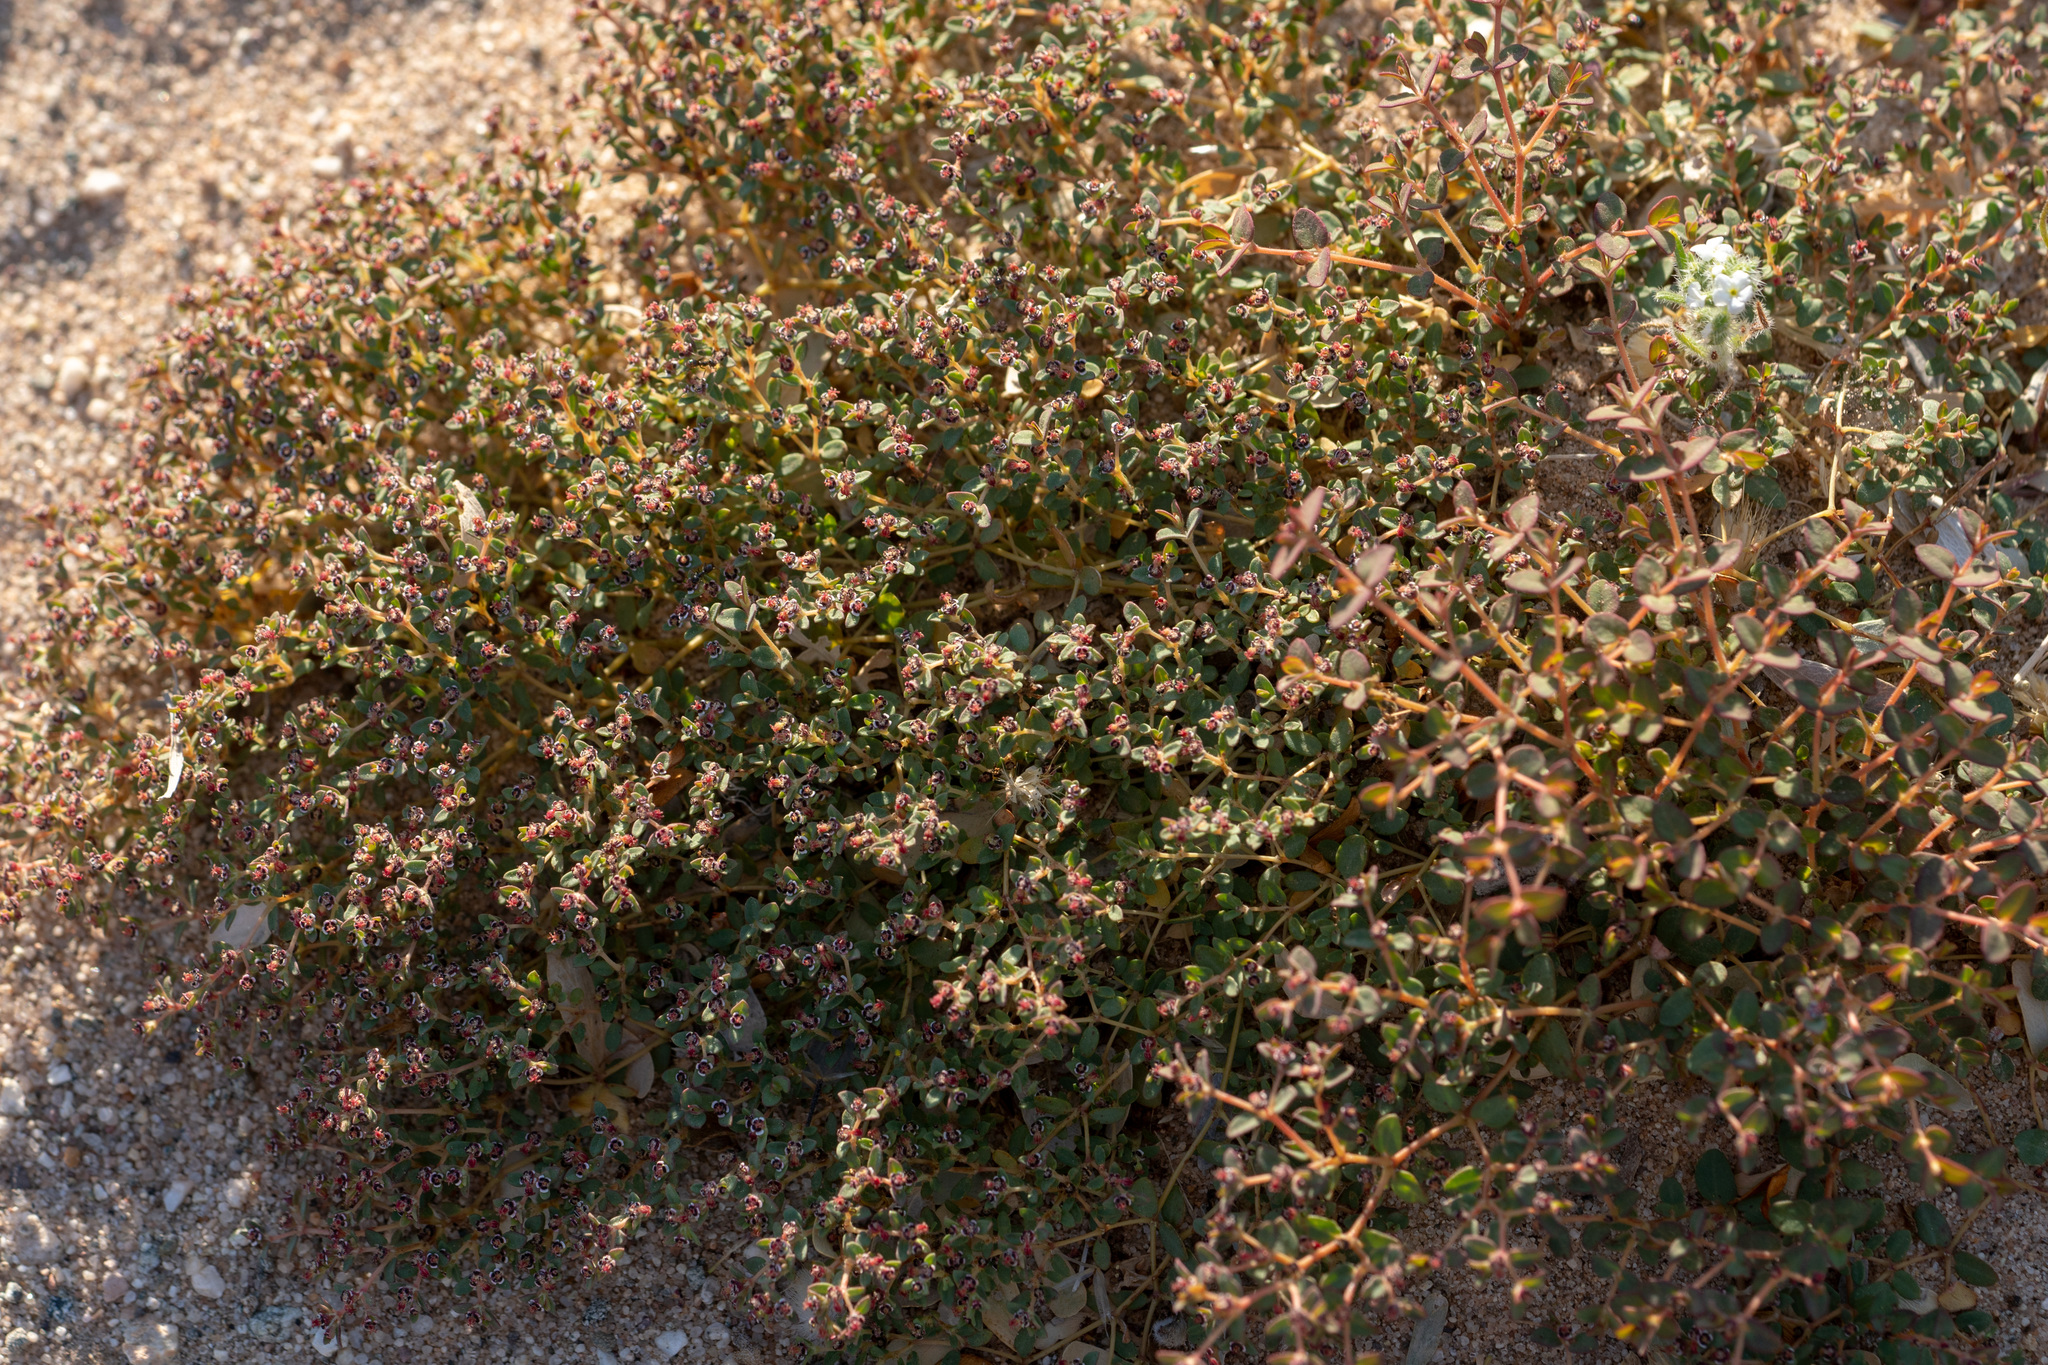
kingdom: Plantae
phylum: Tracheophyta
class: Magnoliopsida
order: Malpighiales
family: Euphorbiaceae
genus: Euphorbia
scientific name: Euphorbia polycarpa
